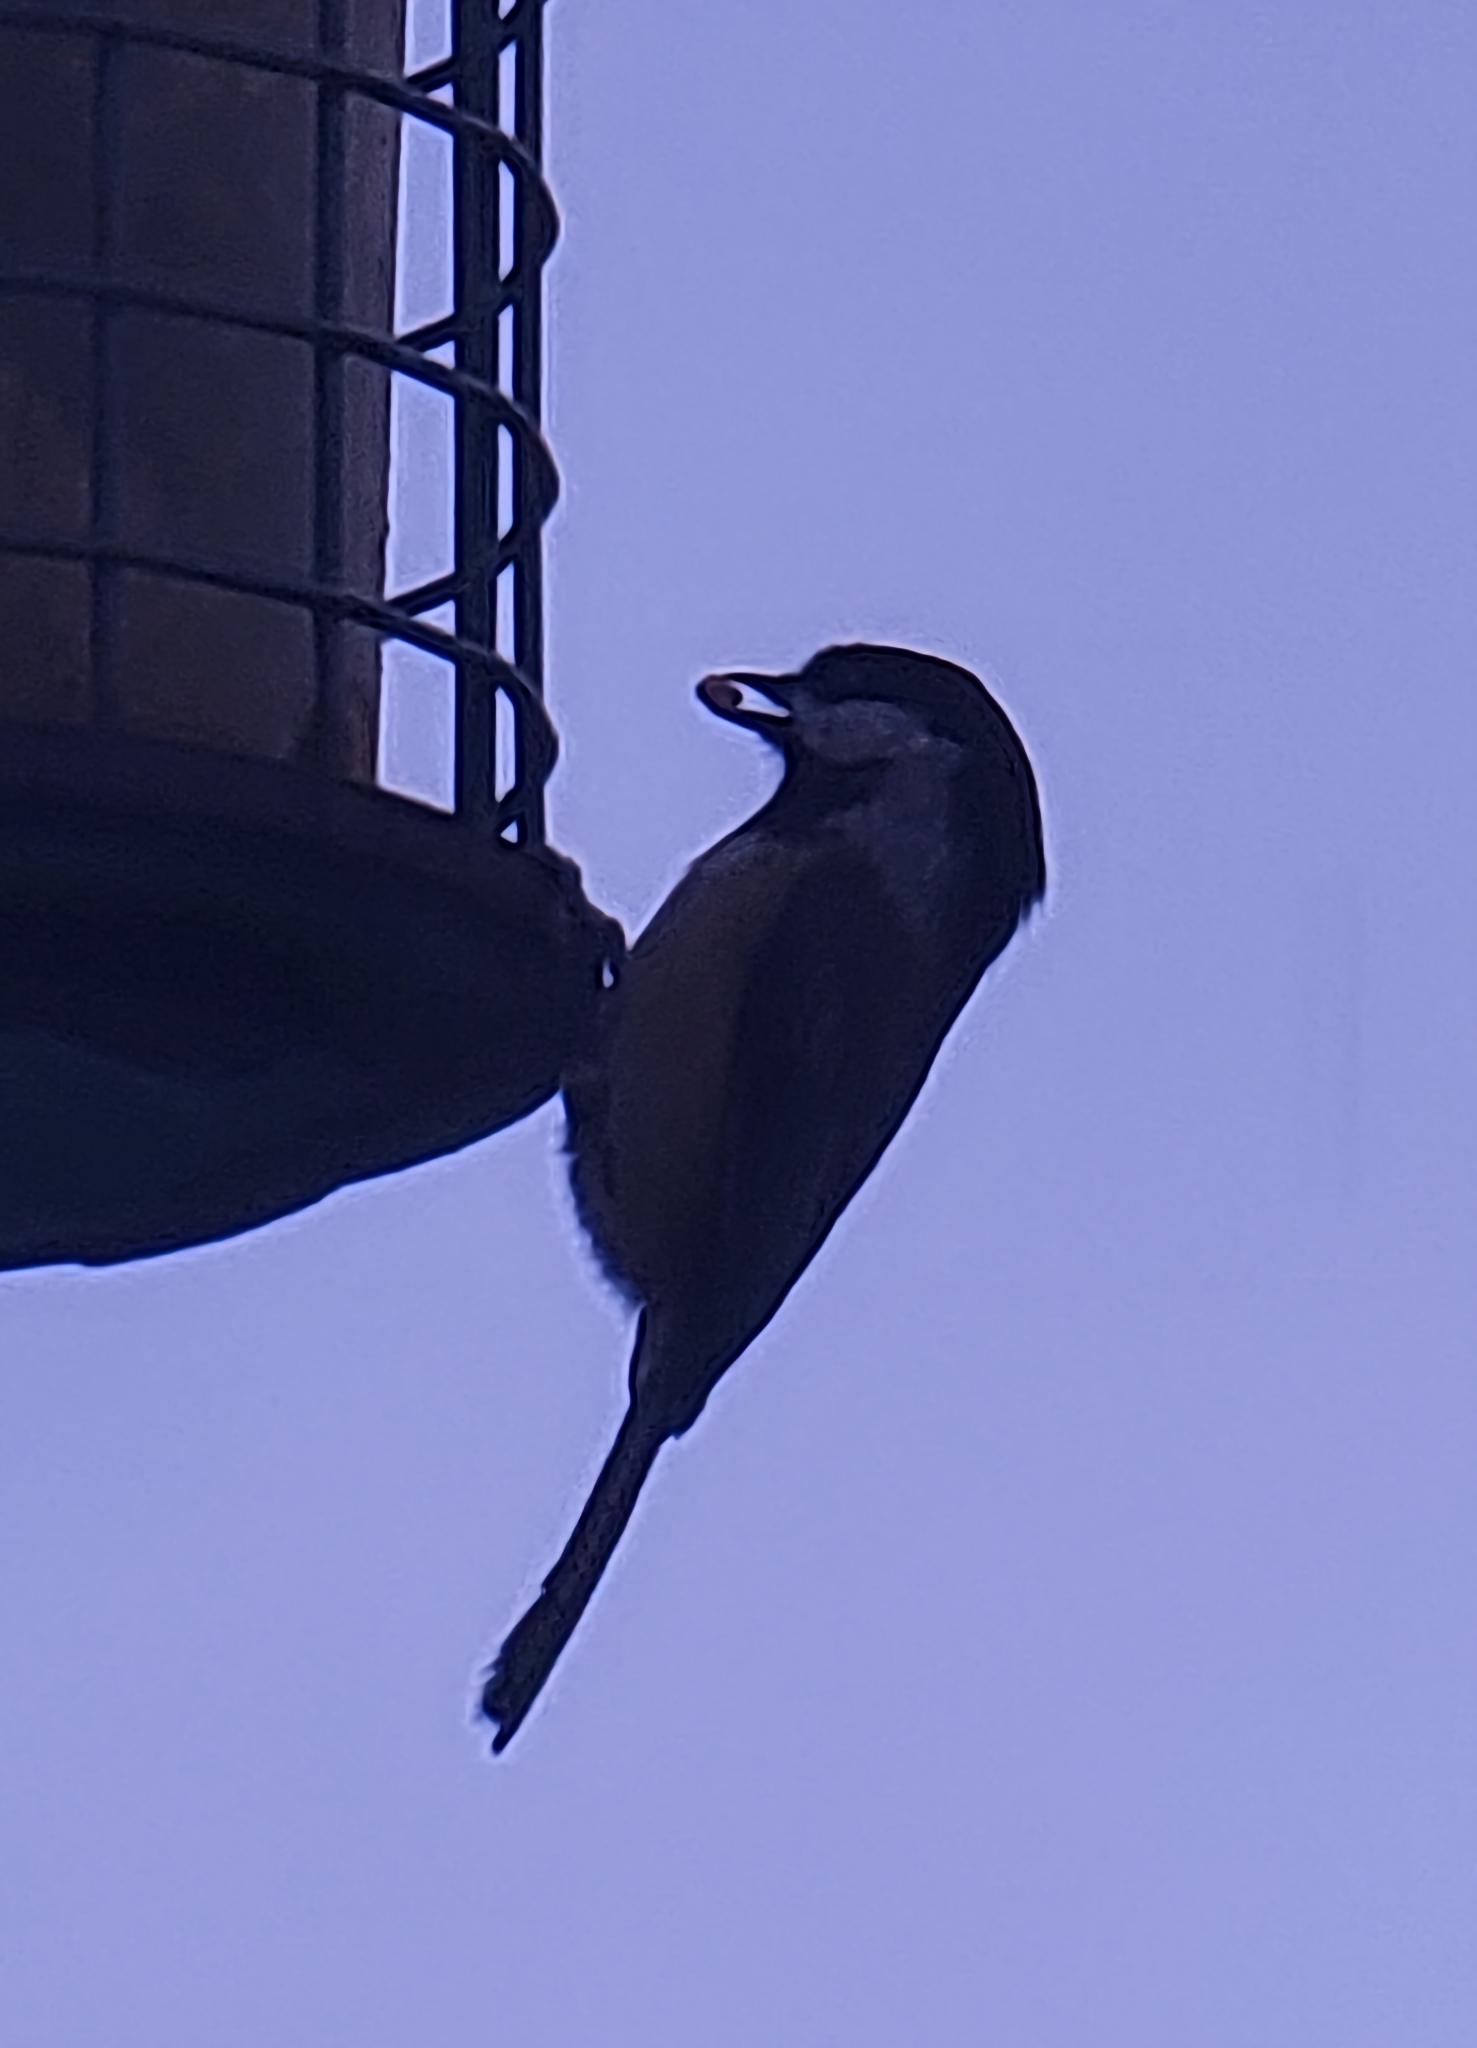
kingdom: Animalia
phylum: Chordata
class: Aves
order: Passeriformes
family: Paridae
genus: Poecile
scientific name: Poecile atricapillus
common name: Black-capped chickadee
